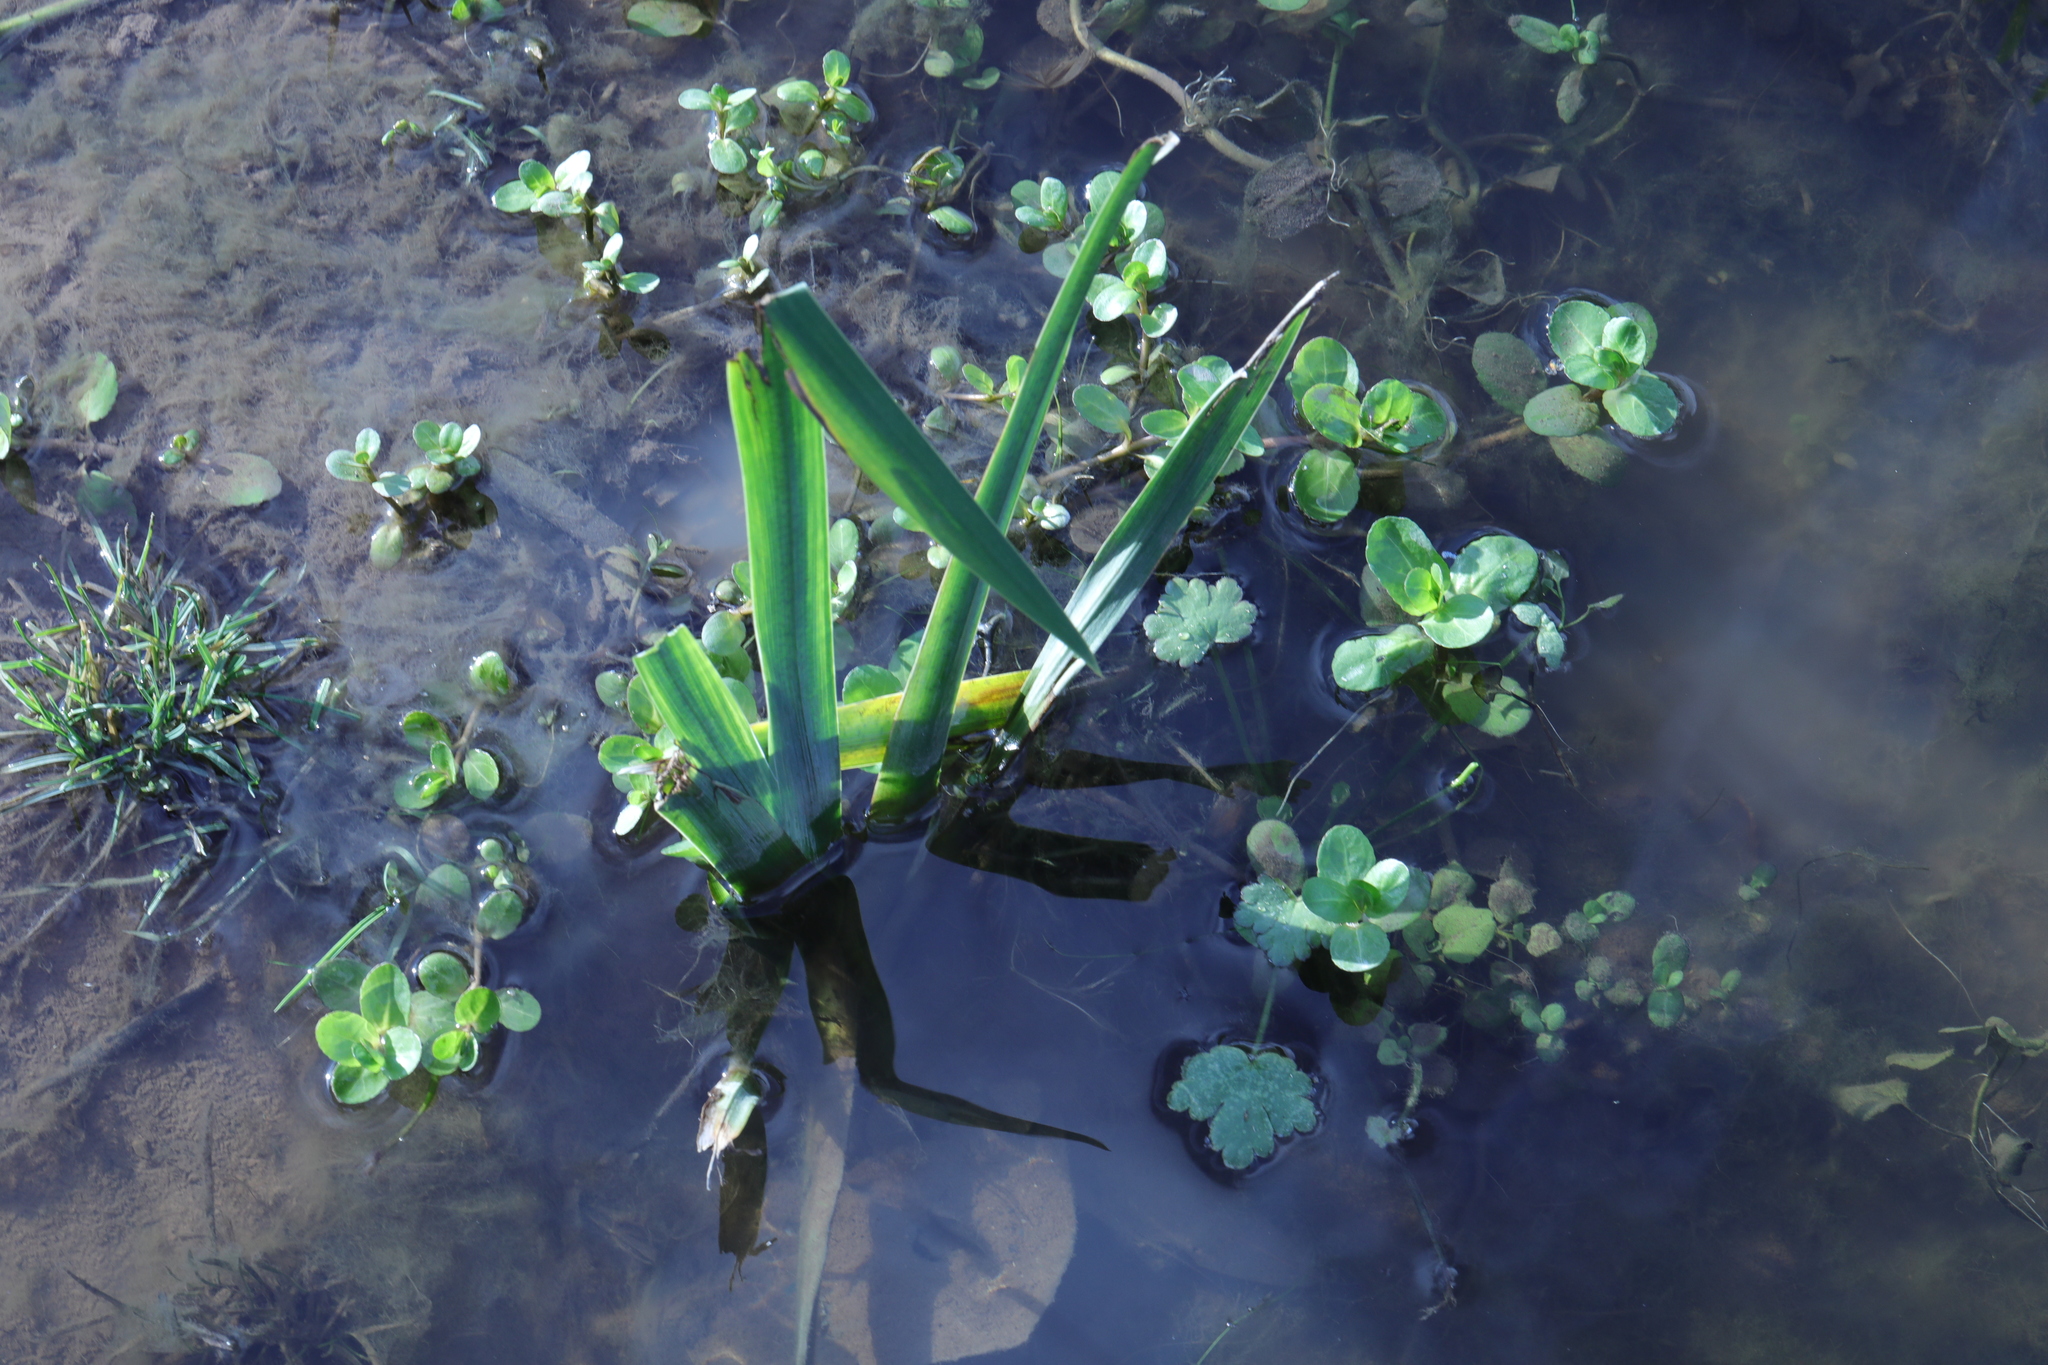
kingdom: Plantae
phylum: Tracheophyta
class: Magnoliopsida
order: Lamiales
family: Plantaginaceae
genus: Veronica
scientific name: Veronica beccabunga
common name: Brooklime
